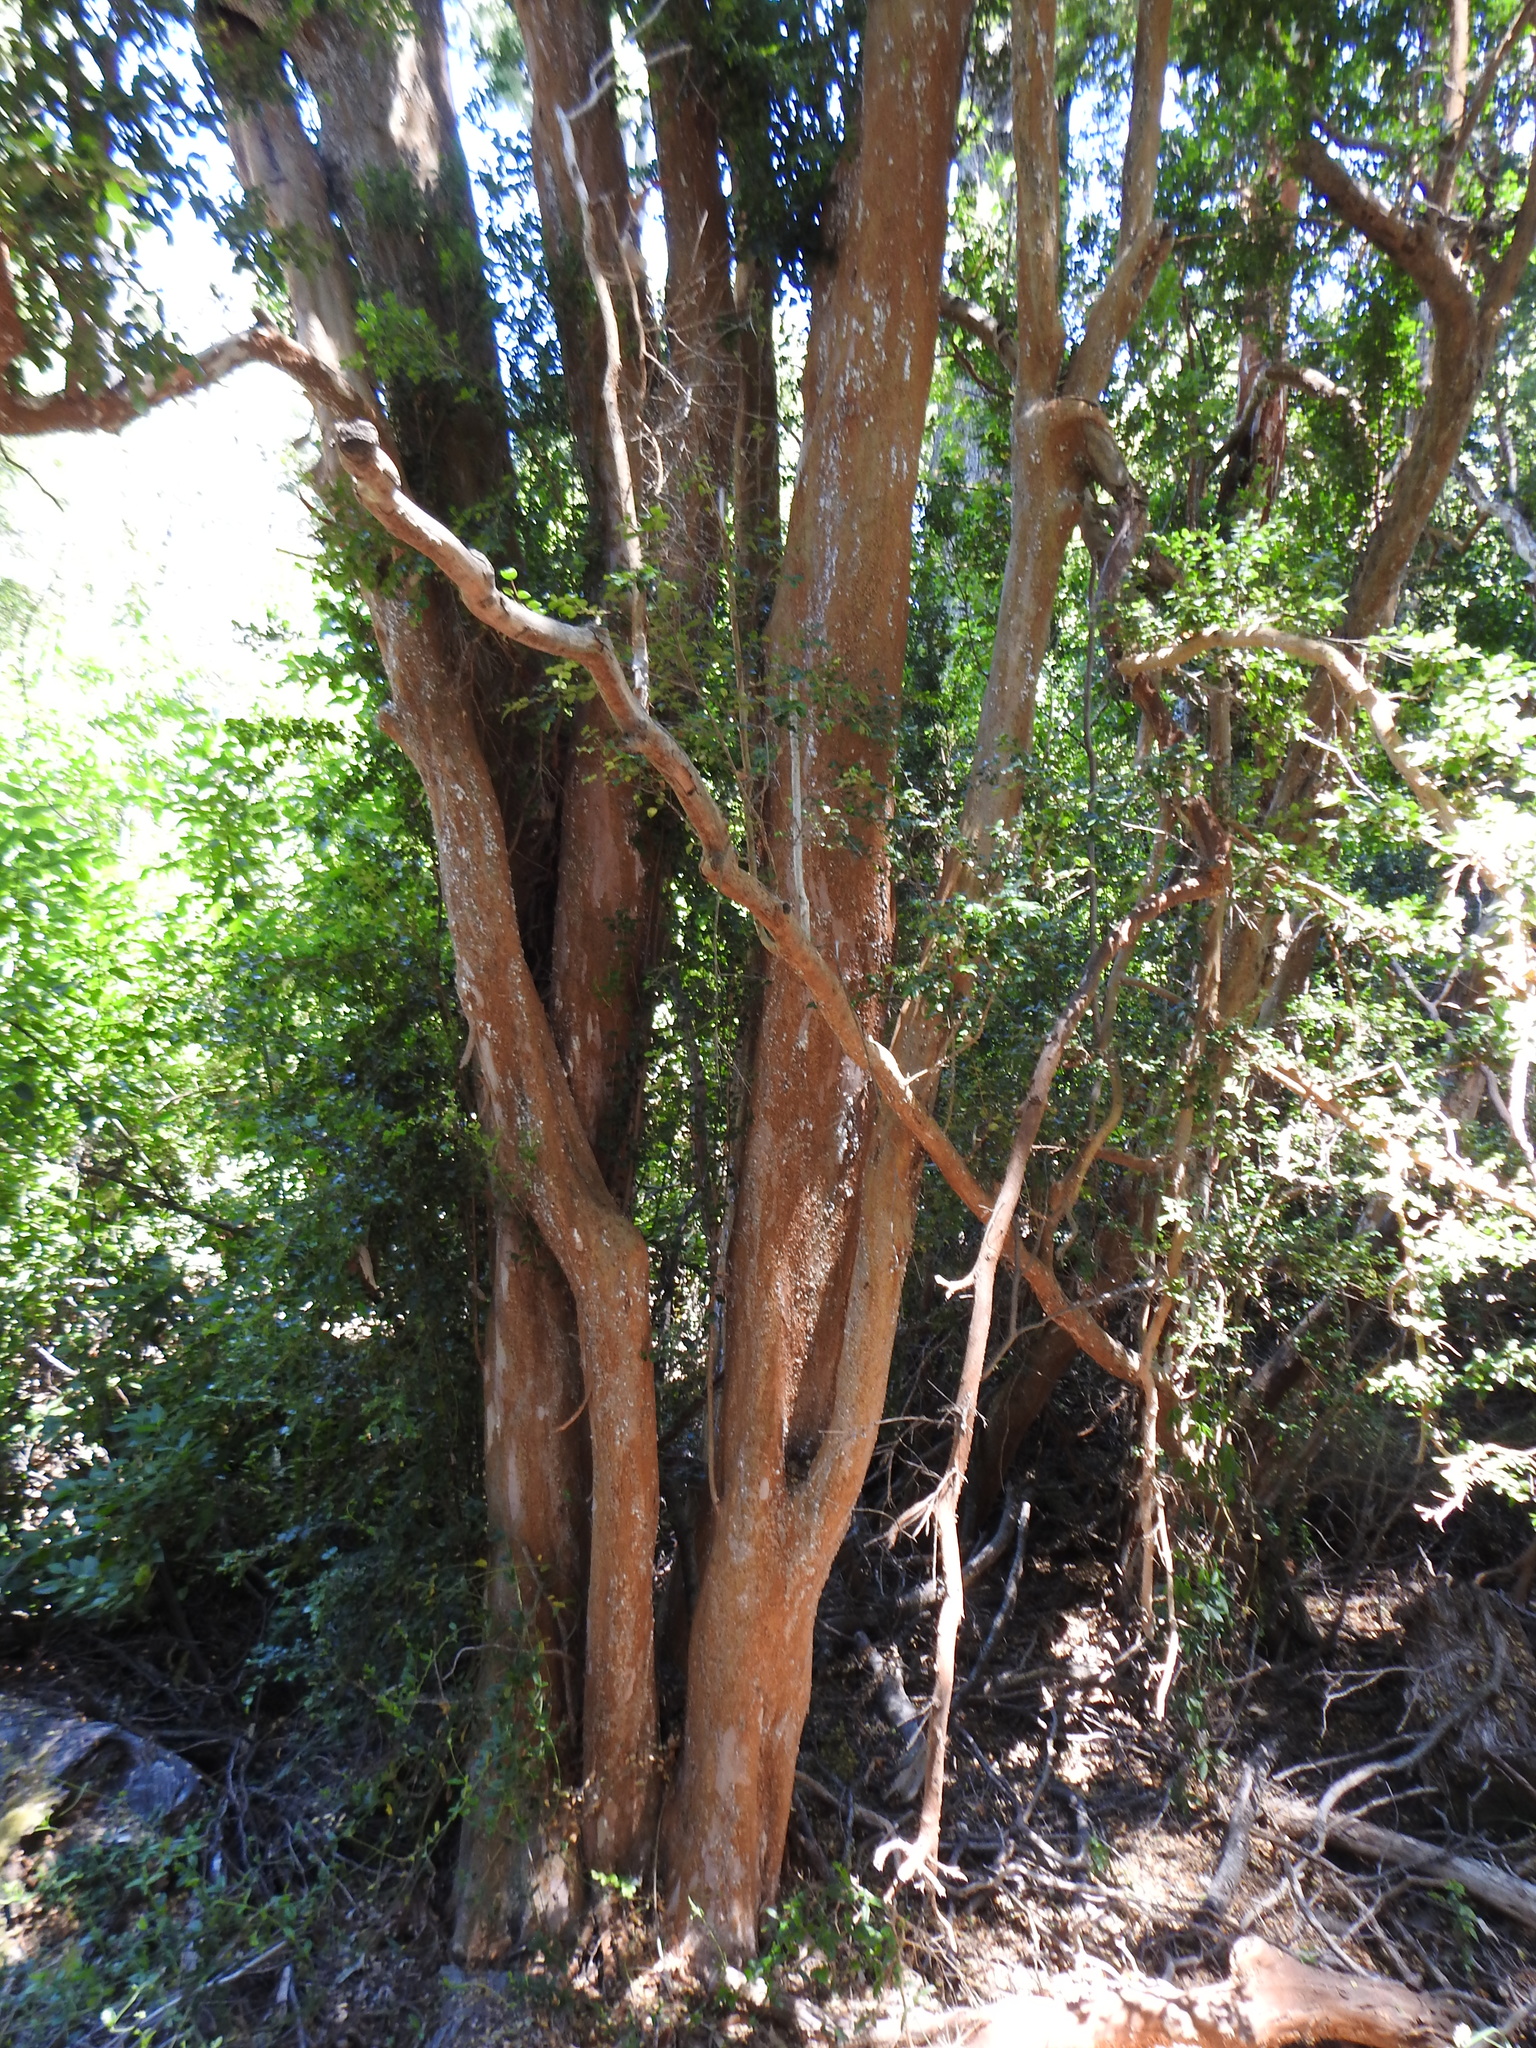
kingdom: Plantae
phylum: Tracheophyta
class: Magnoliopsida
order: Myrtales
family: Myrtaceae
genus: Luma
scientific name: Luma apiculata
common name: Chilean myrtle
